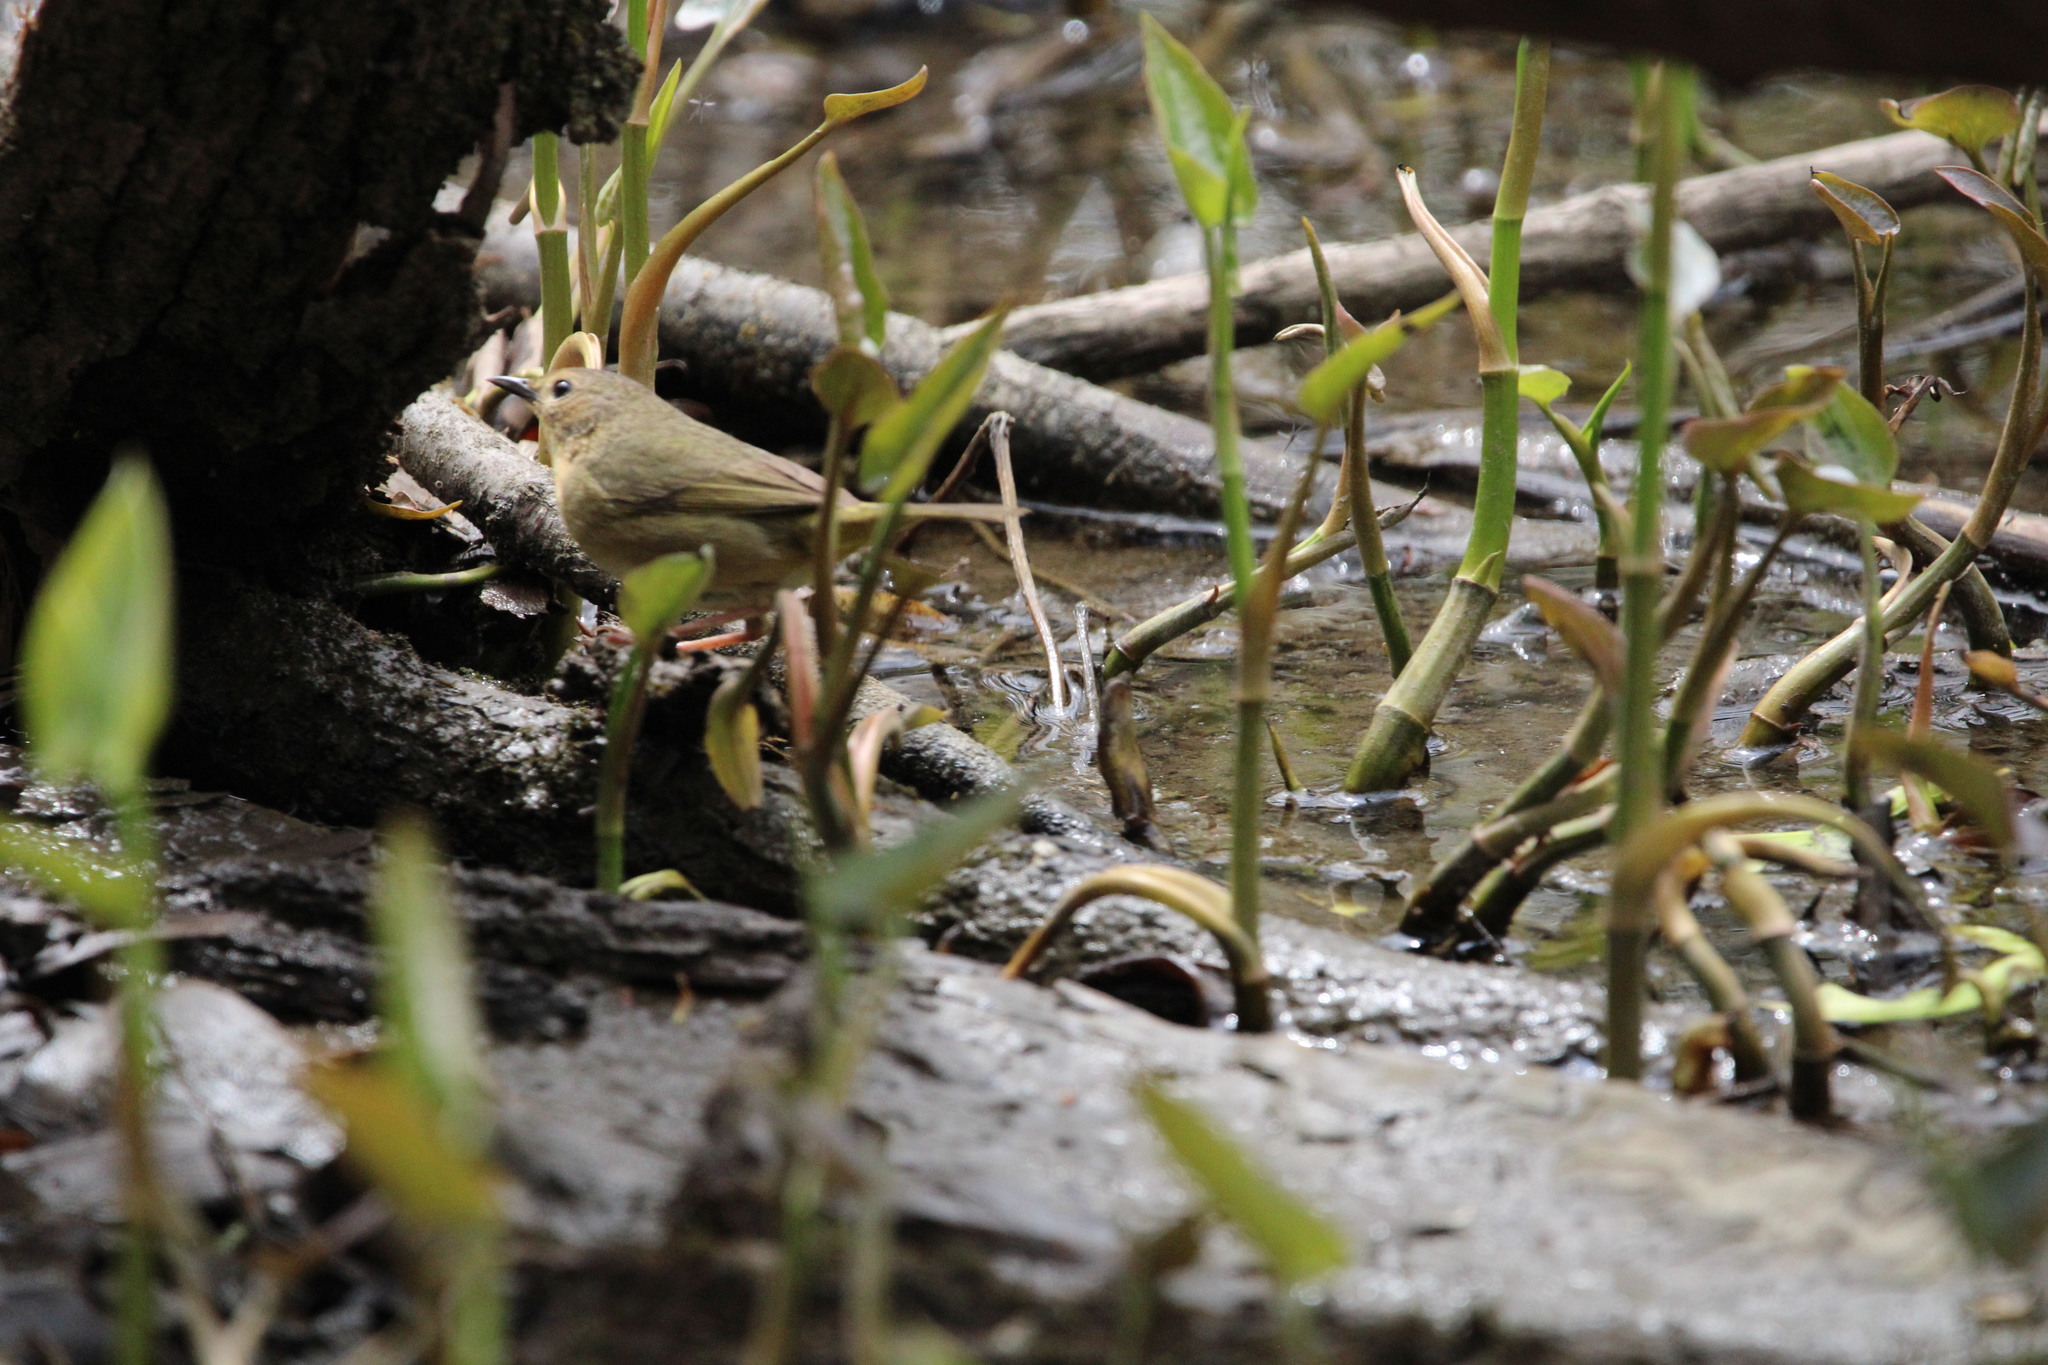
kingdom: Animalia
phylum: Chordata
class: Aves
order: Passeriformes
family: Parulidae
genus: Geothlypis
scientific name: Geothlypis trichas
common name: Common yellowthroat
